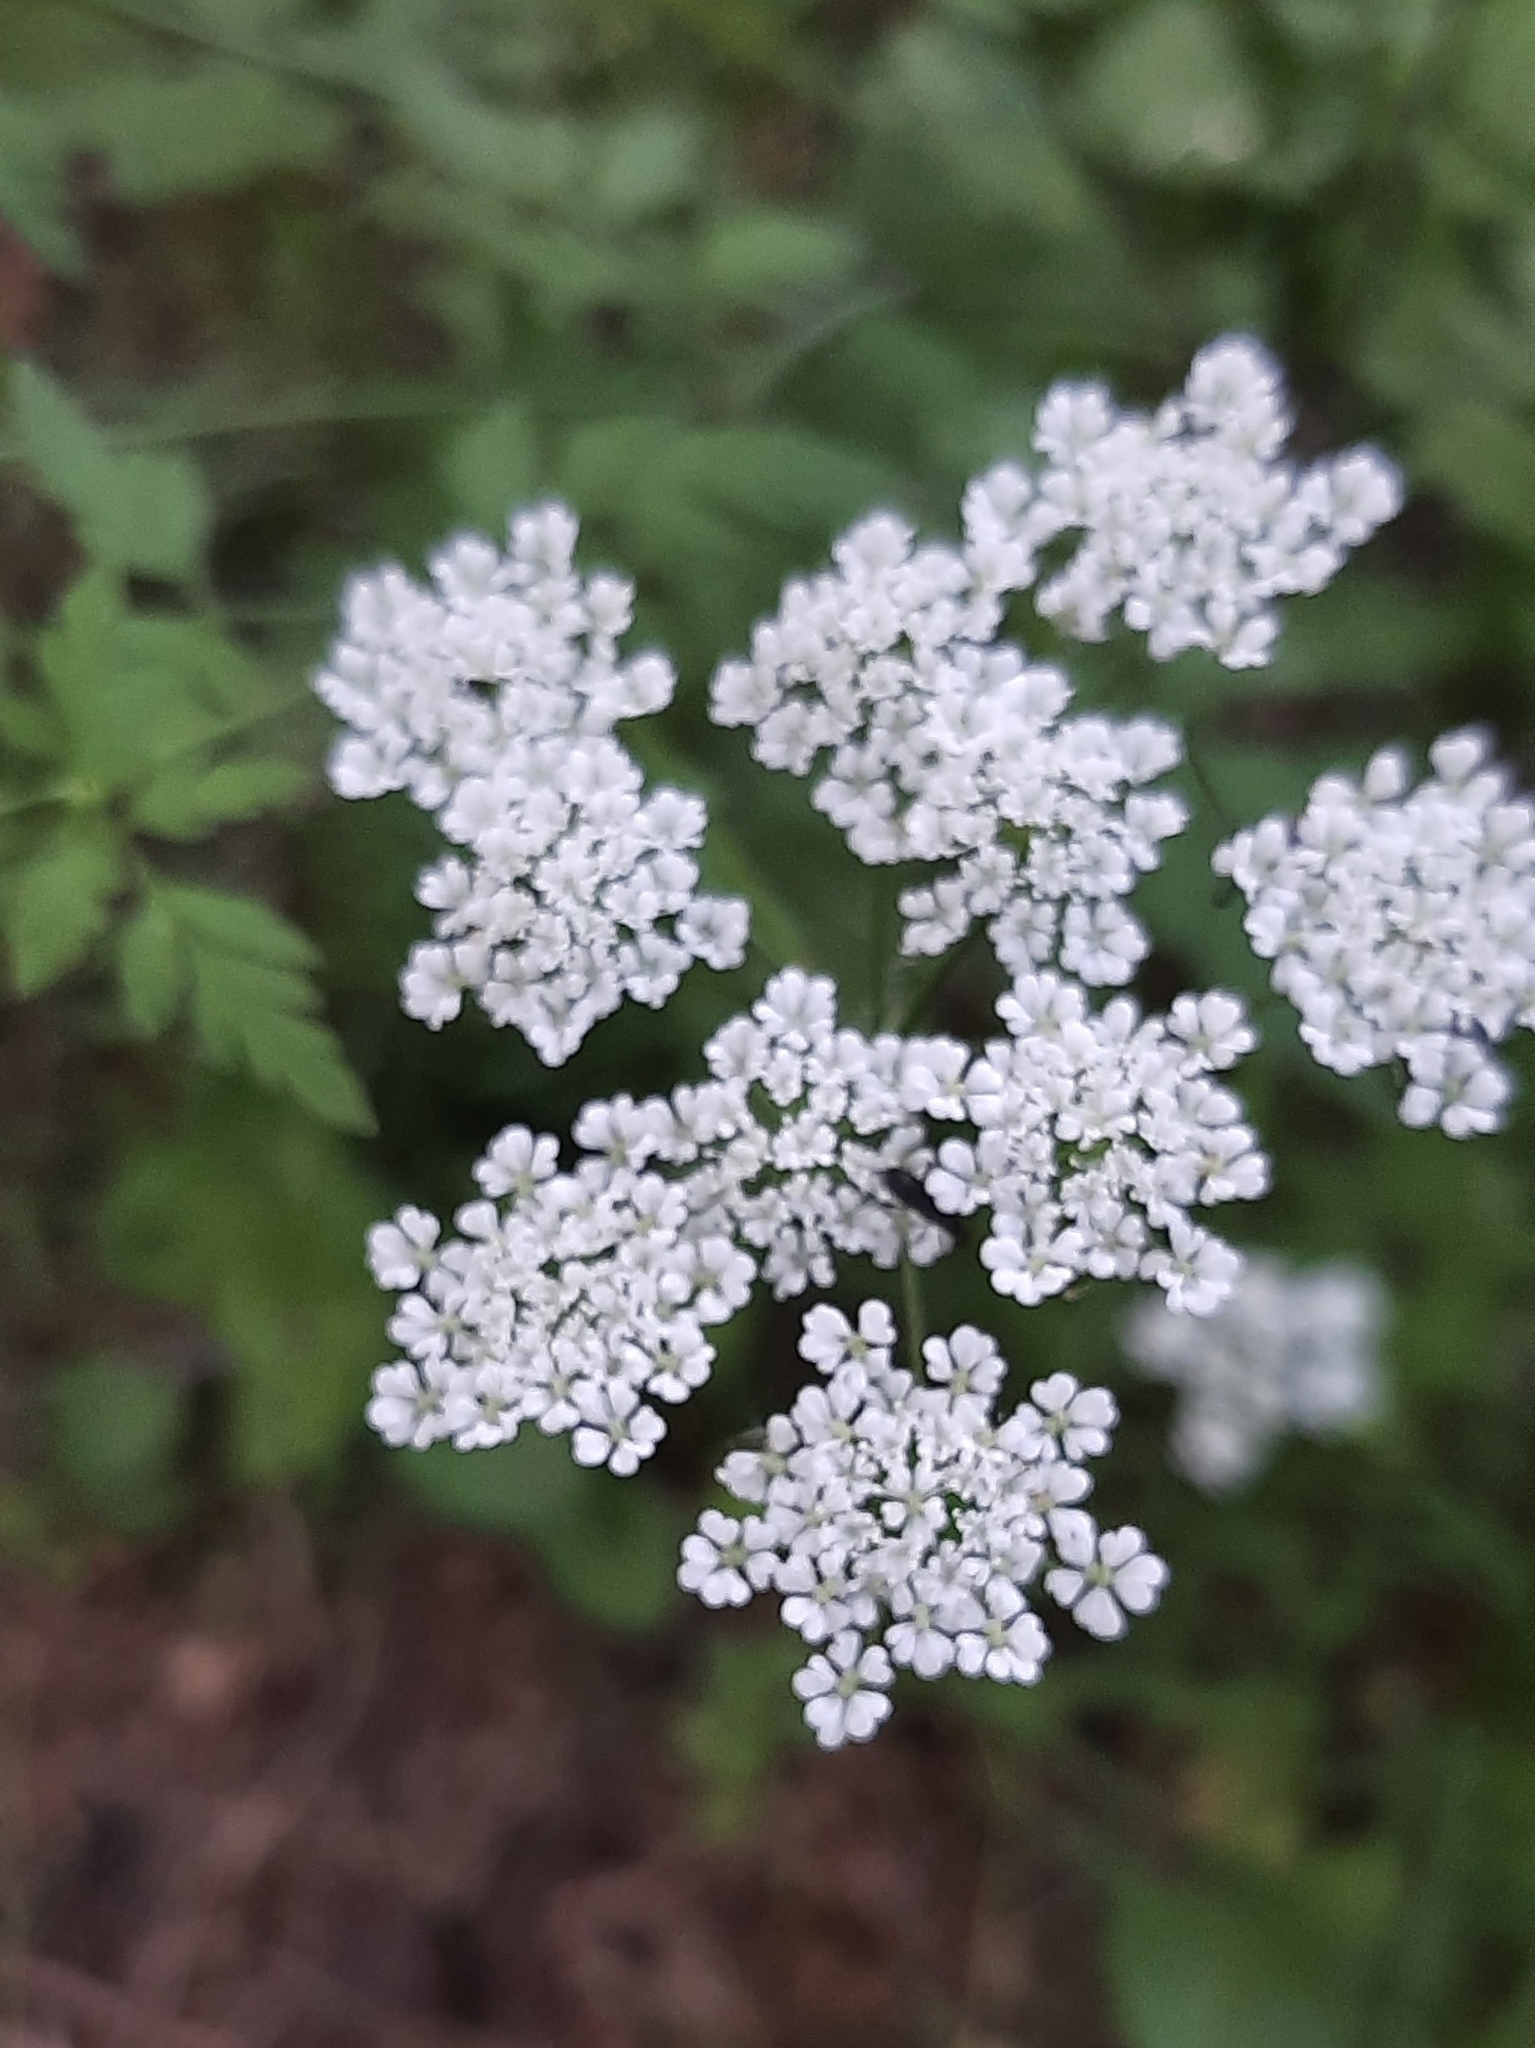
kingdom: Plantae
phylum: Tracheophyta
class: Magnoliopsida
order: Apiales
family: Apiaceae
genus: Chaerophyllum
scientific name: Chaerophyllum temulum
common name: Rough chervil
